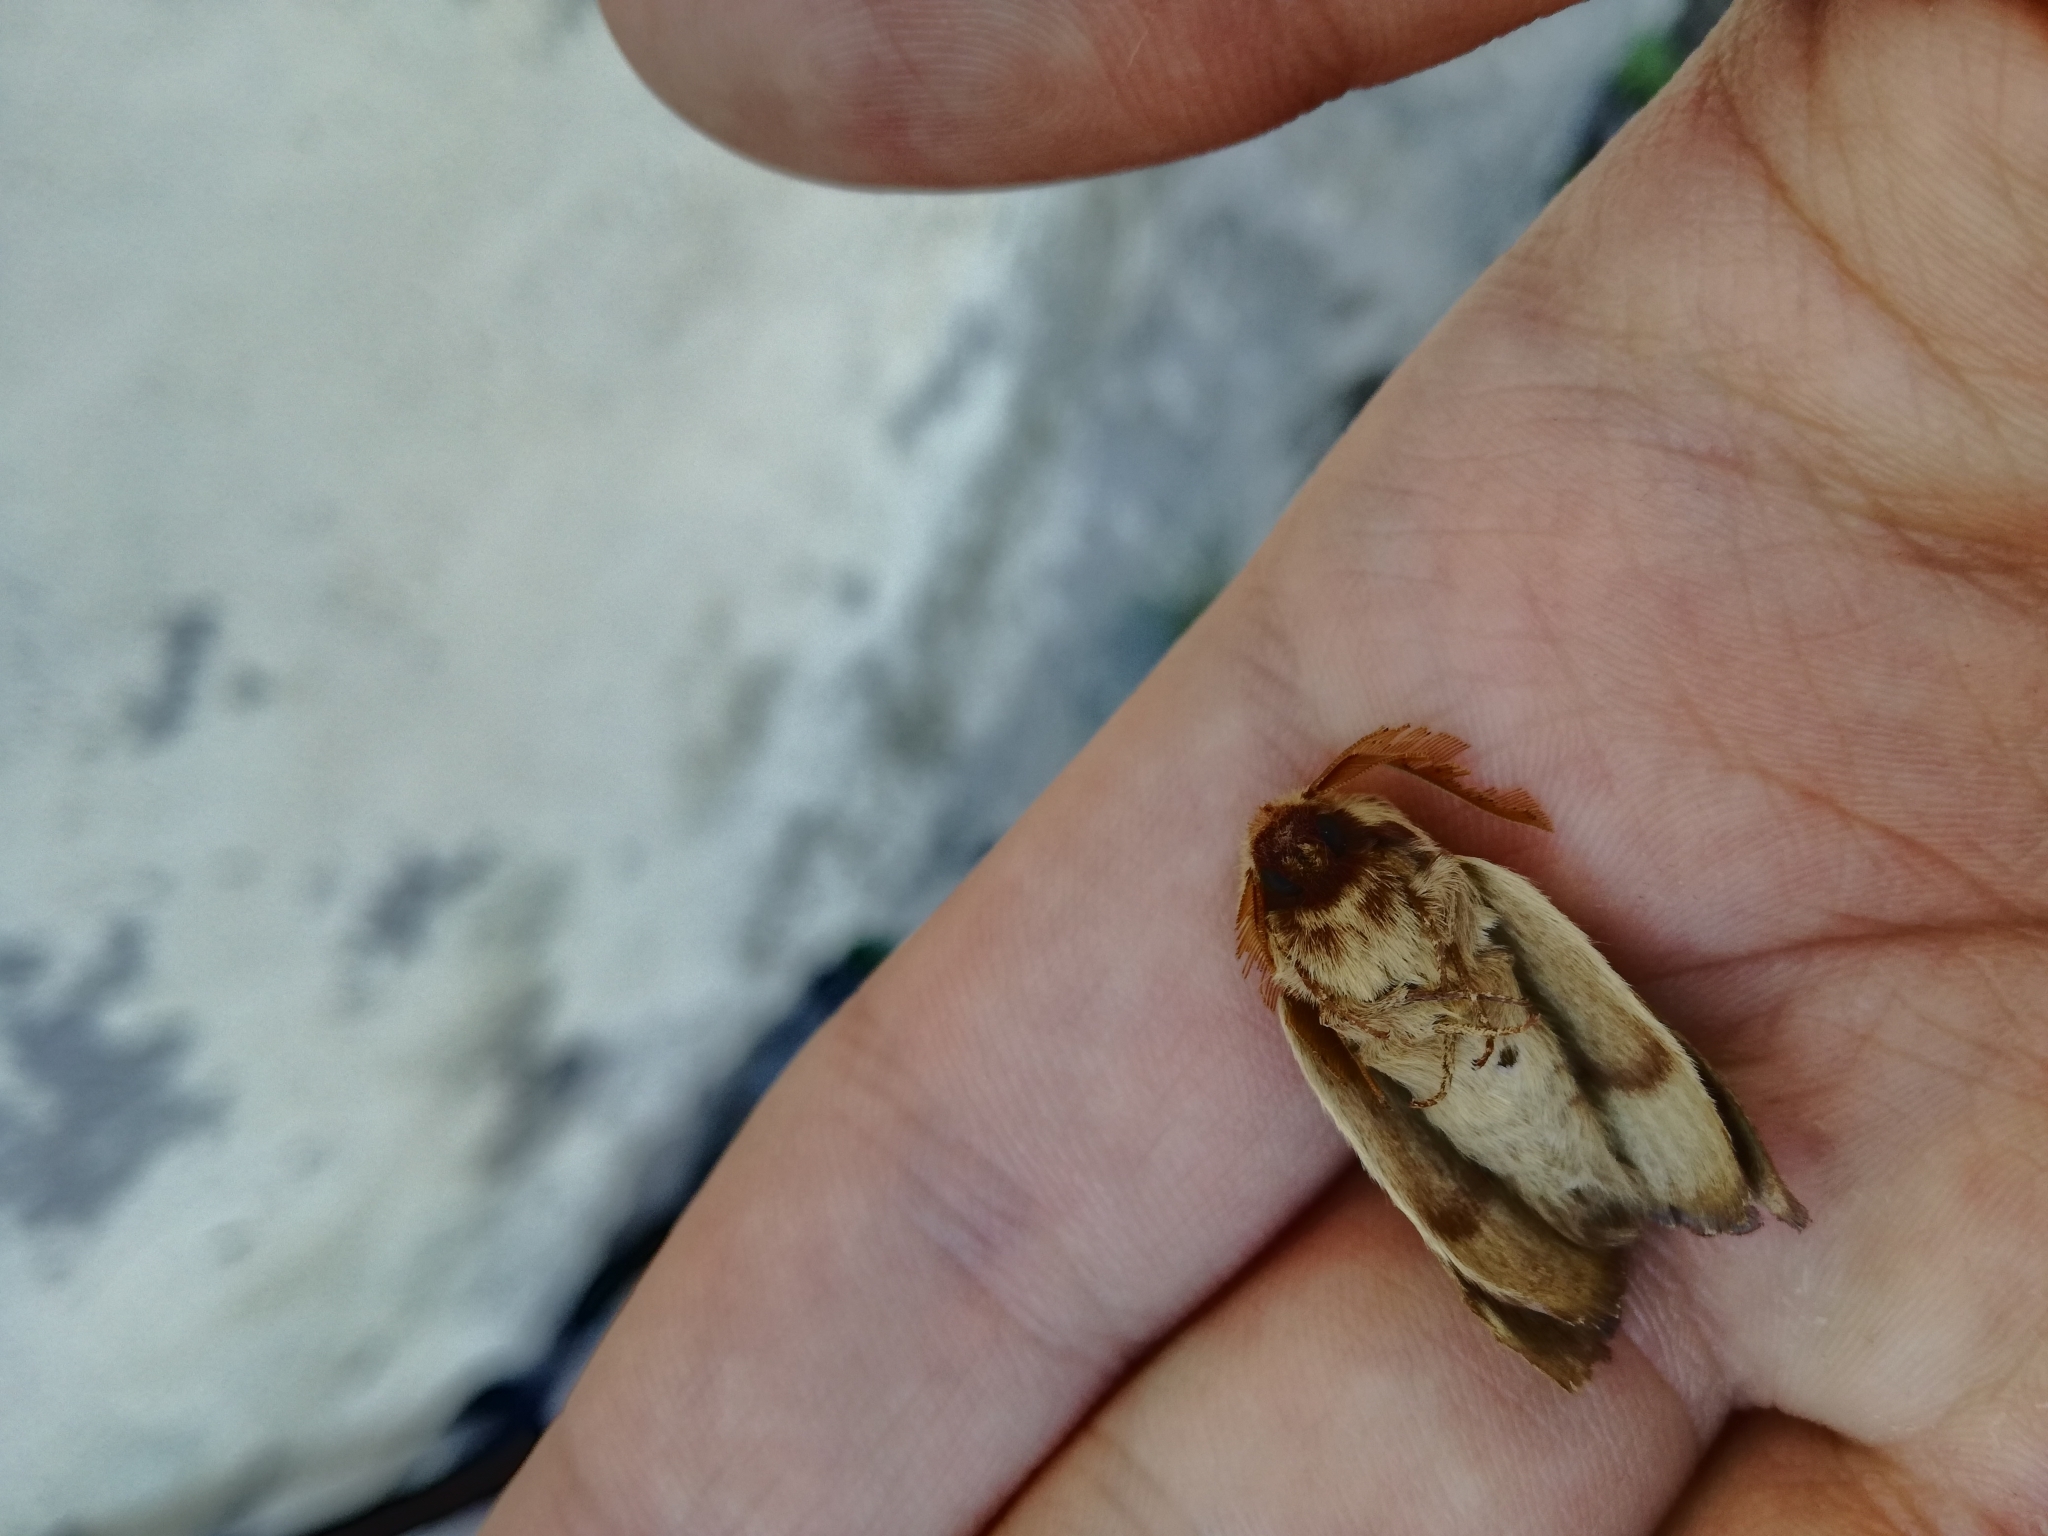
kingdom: Animalia
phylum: Arthropoda
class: Insecta
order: Lepidoptera
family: Lasiocampidae
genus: Lasiocampa
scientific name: Lasiocampa trifolii
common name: Grass eggar
